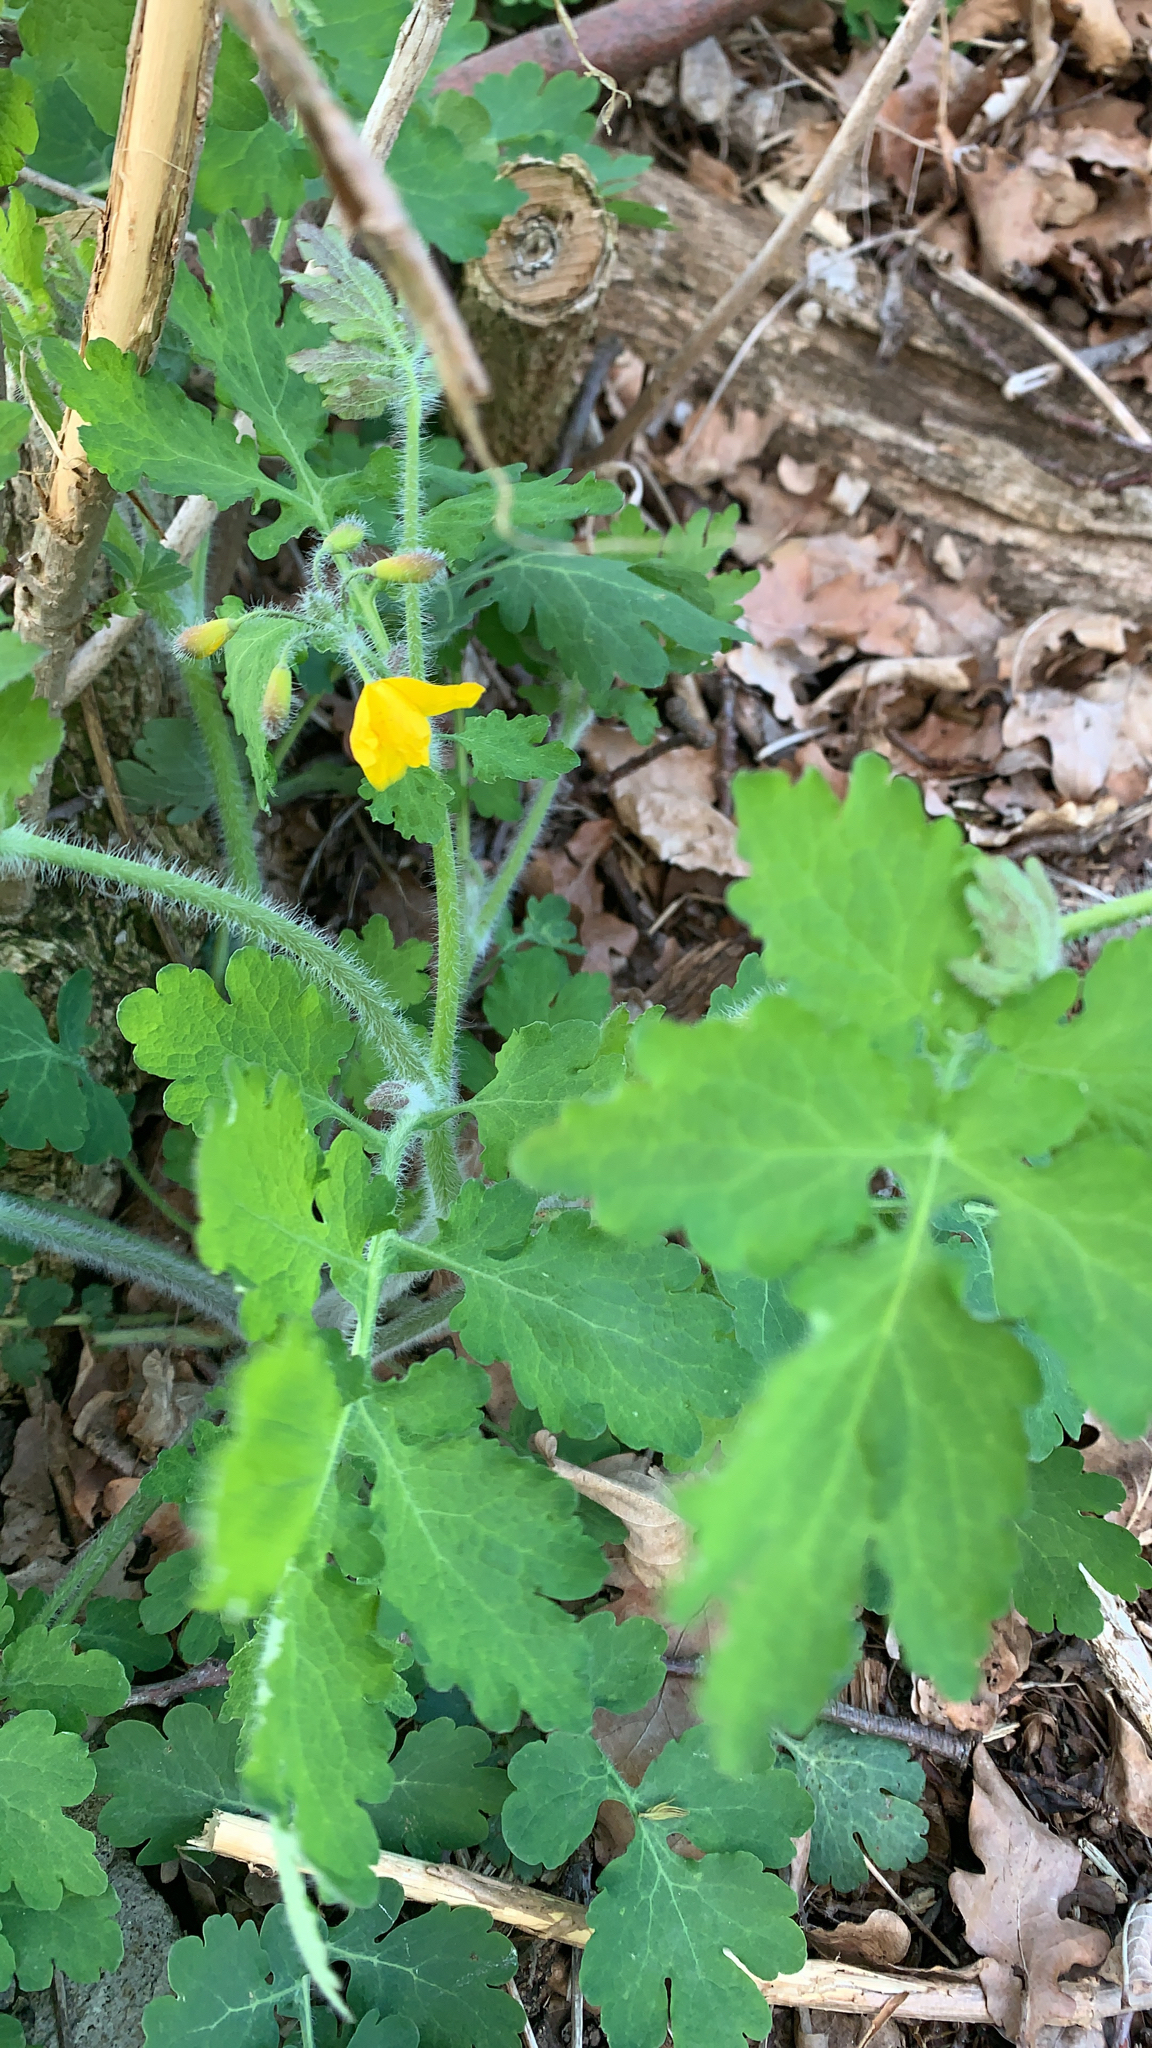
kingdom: Plantae
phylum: Tracheophyta
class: Magnoliopsida
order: Ranunculales
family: Papaveraceae
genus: Chelidonium
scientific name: Chelidonium majus
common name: Greater celandine
